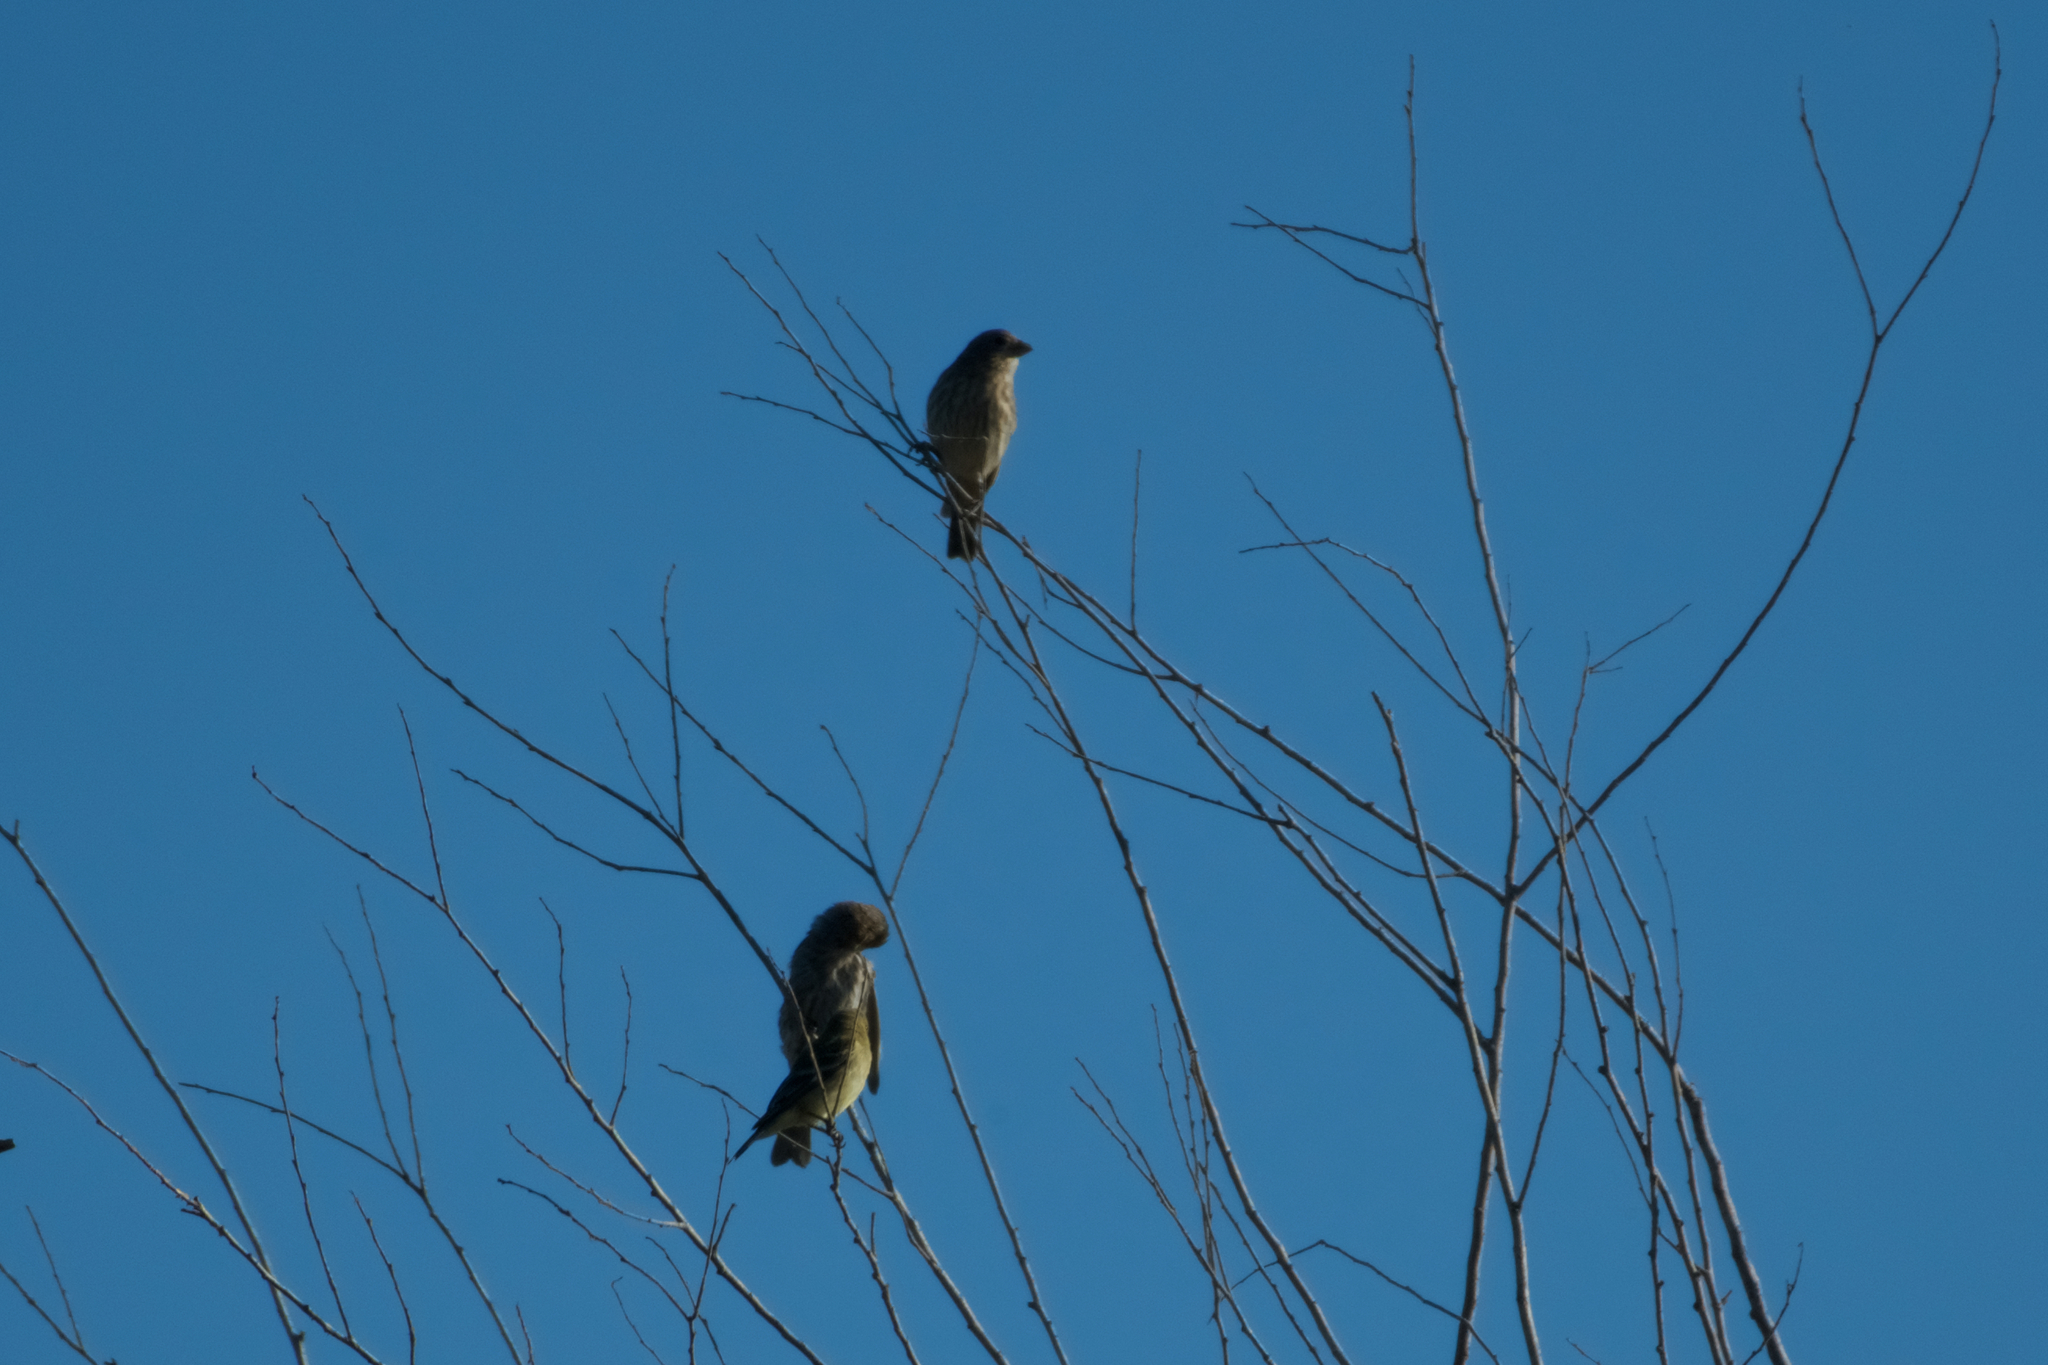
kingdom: Animalia
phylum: Chordata
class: Aves
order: Passeriformes
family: Fringillidae
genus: Haemorhous
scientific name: Haemorhous mexicanus
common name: House finch
